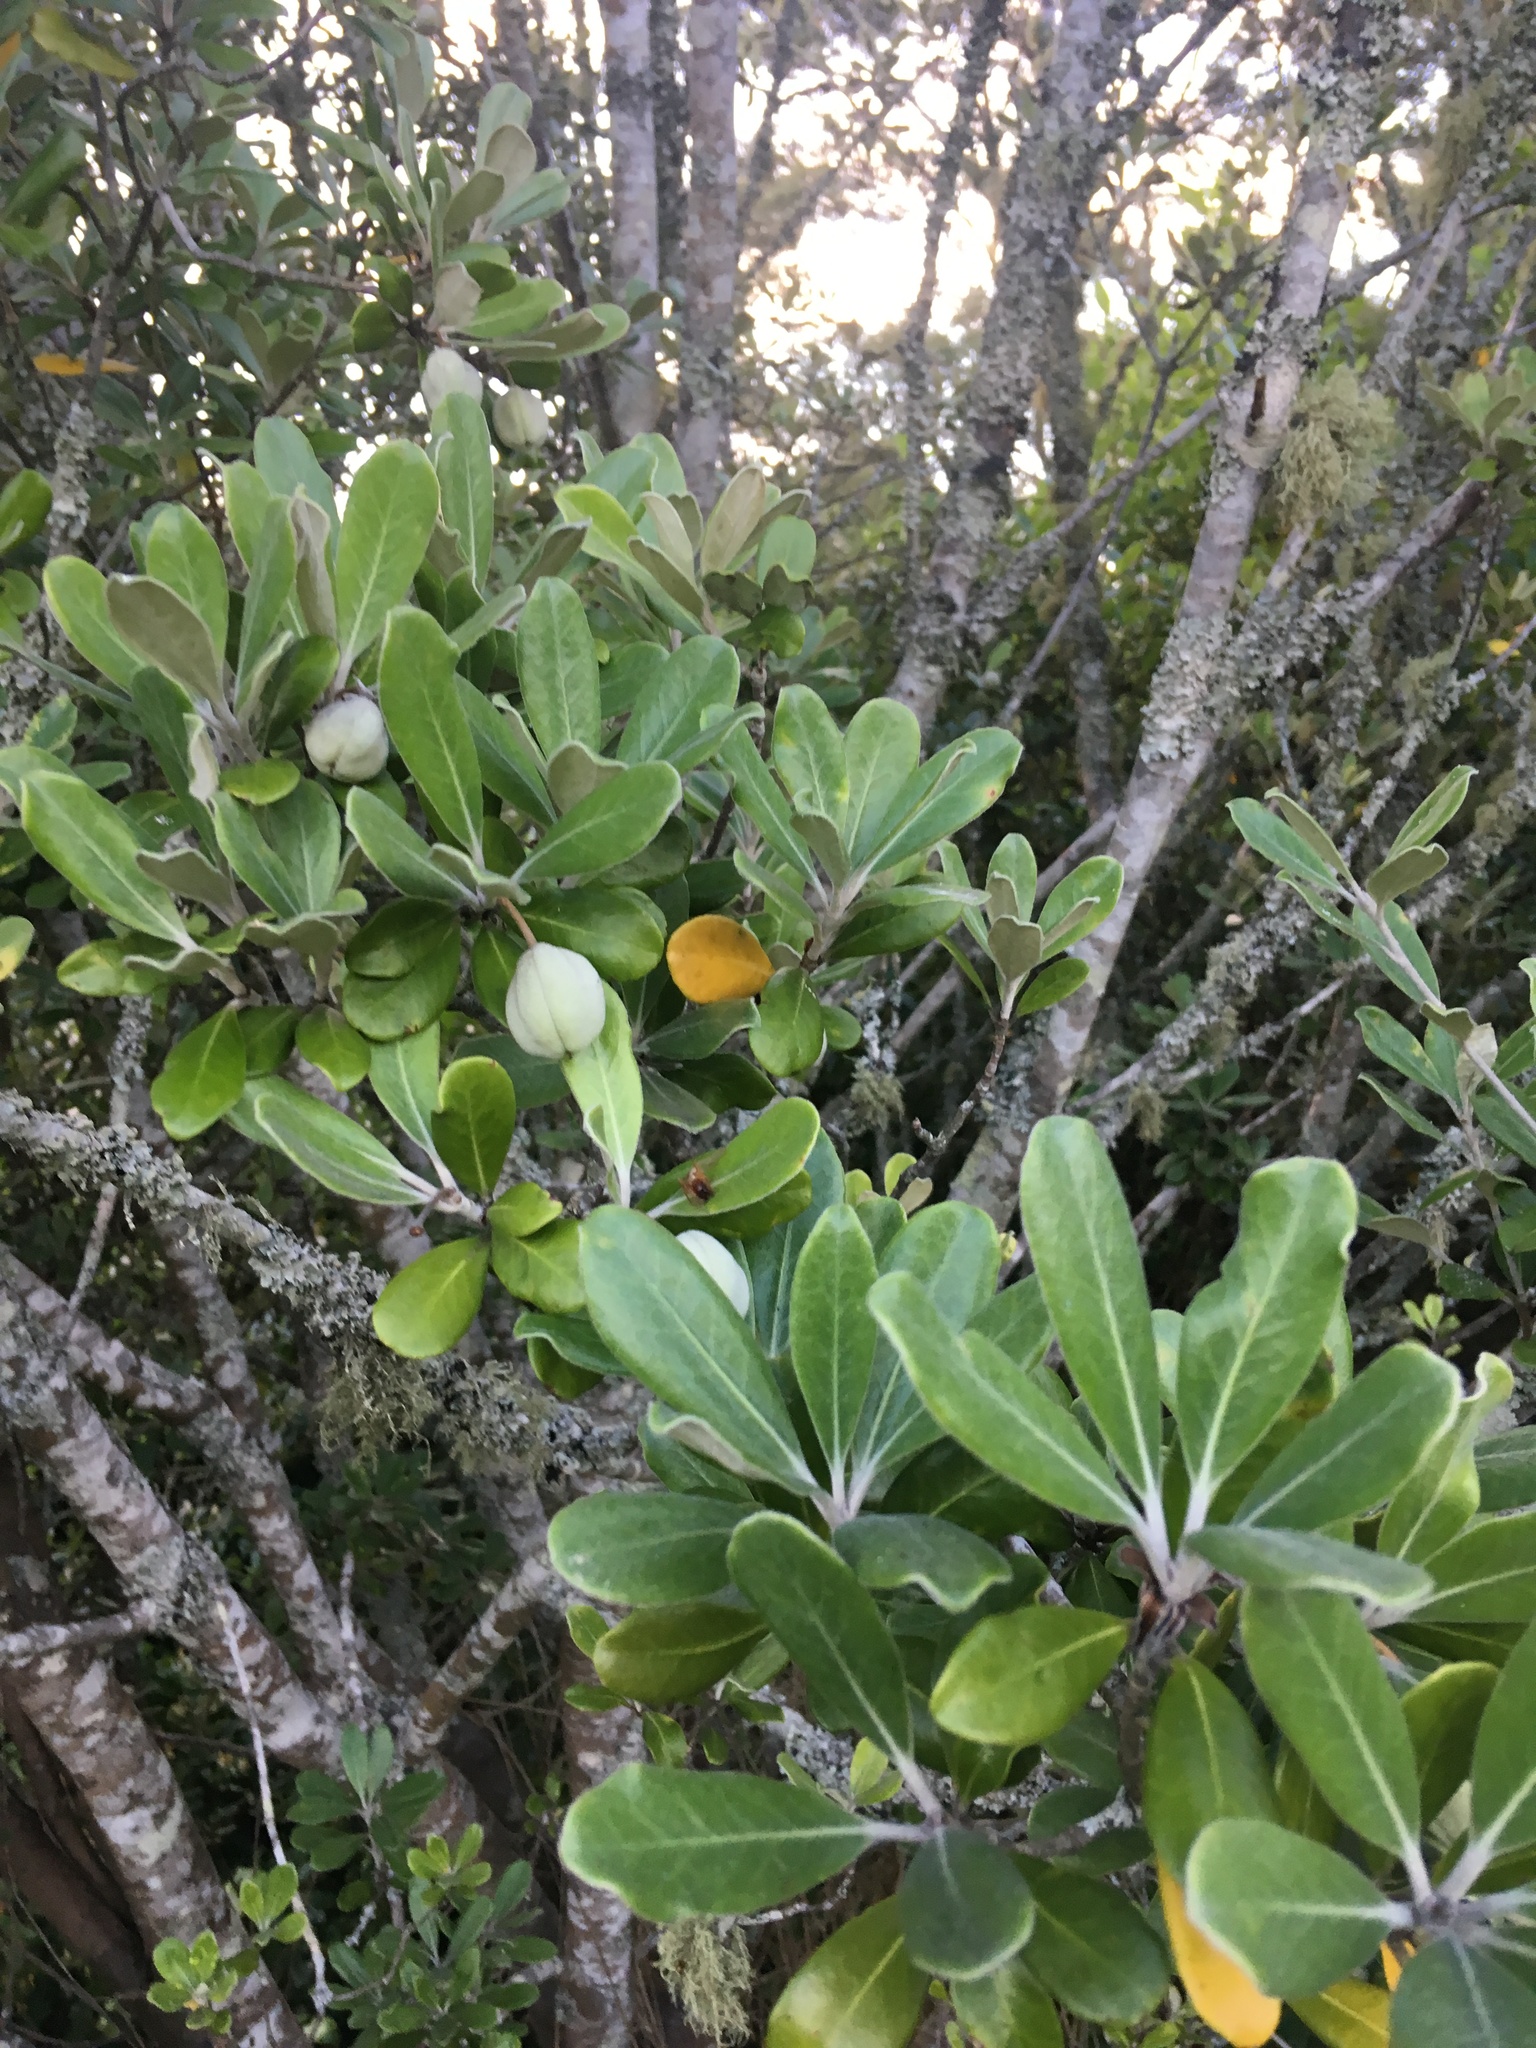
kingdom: Plantae
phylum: Tracheophyta
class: Magnoliopsida
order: Apiales
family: Pittosporaceae
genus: Pittosporum
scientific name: Pittosporum crassifolium
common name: Karo
